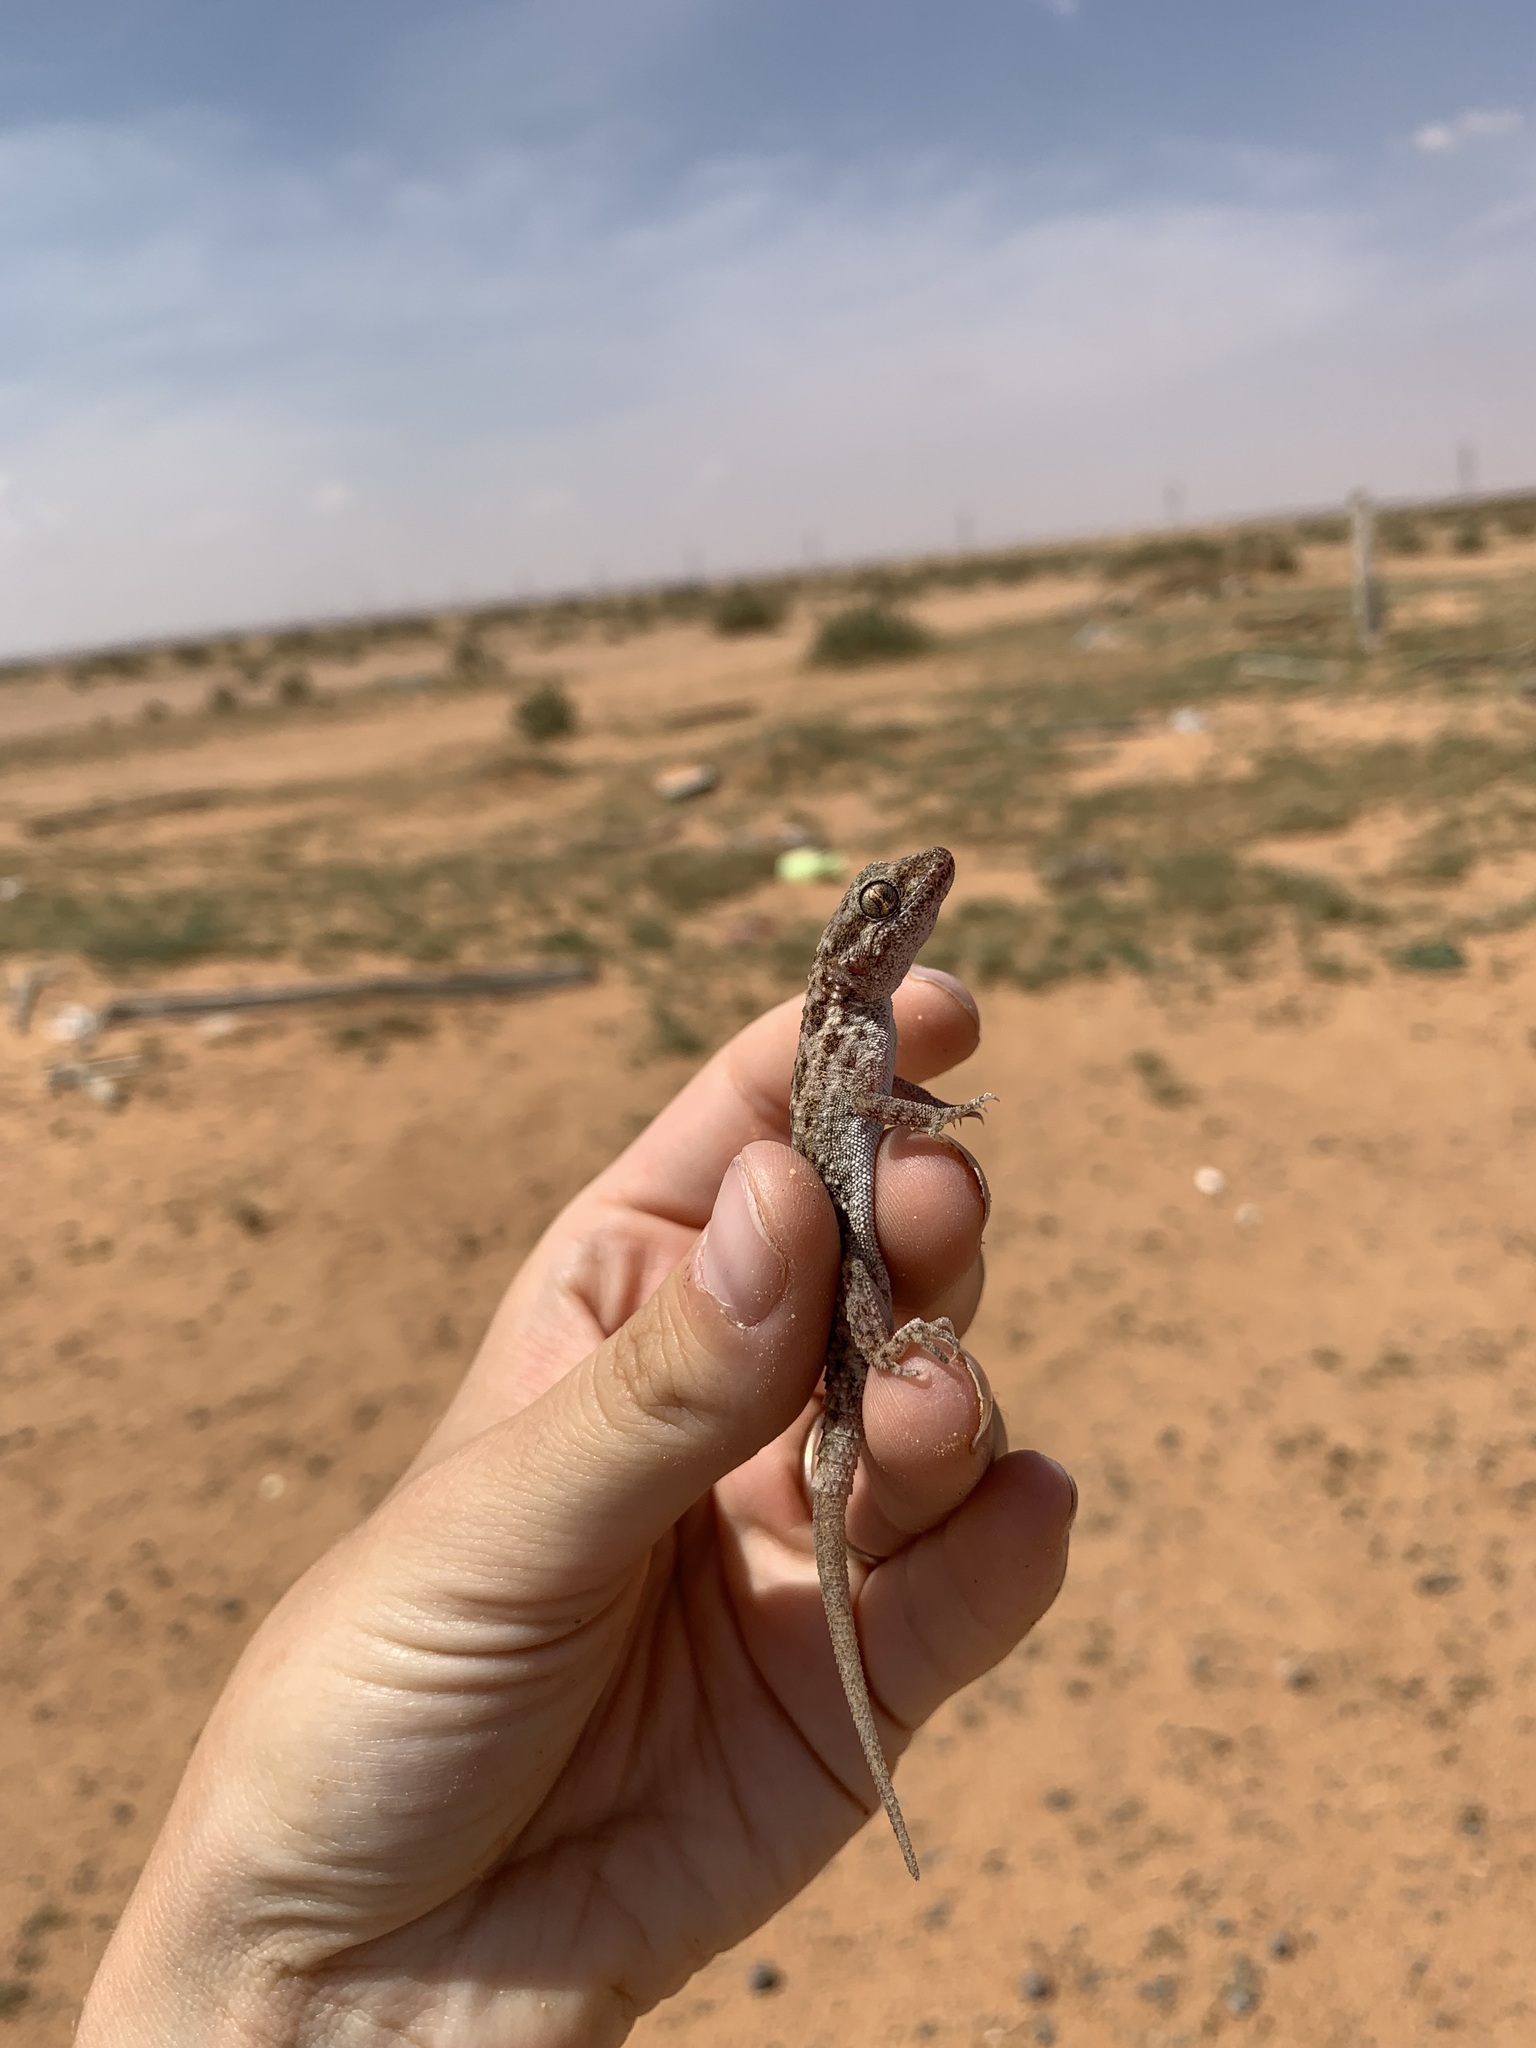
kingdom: Animalia
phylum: Chordata
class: Squamata
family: Gekkonidae
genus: Bunopus
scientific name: Bunopus tuberculatus
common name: Southern tuberculated gecko
